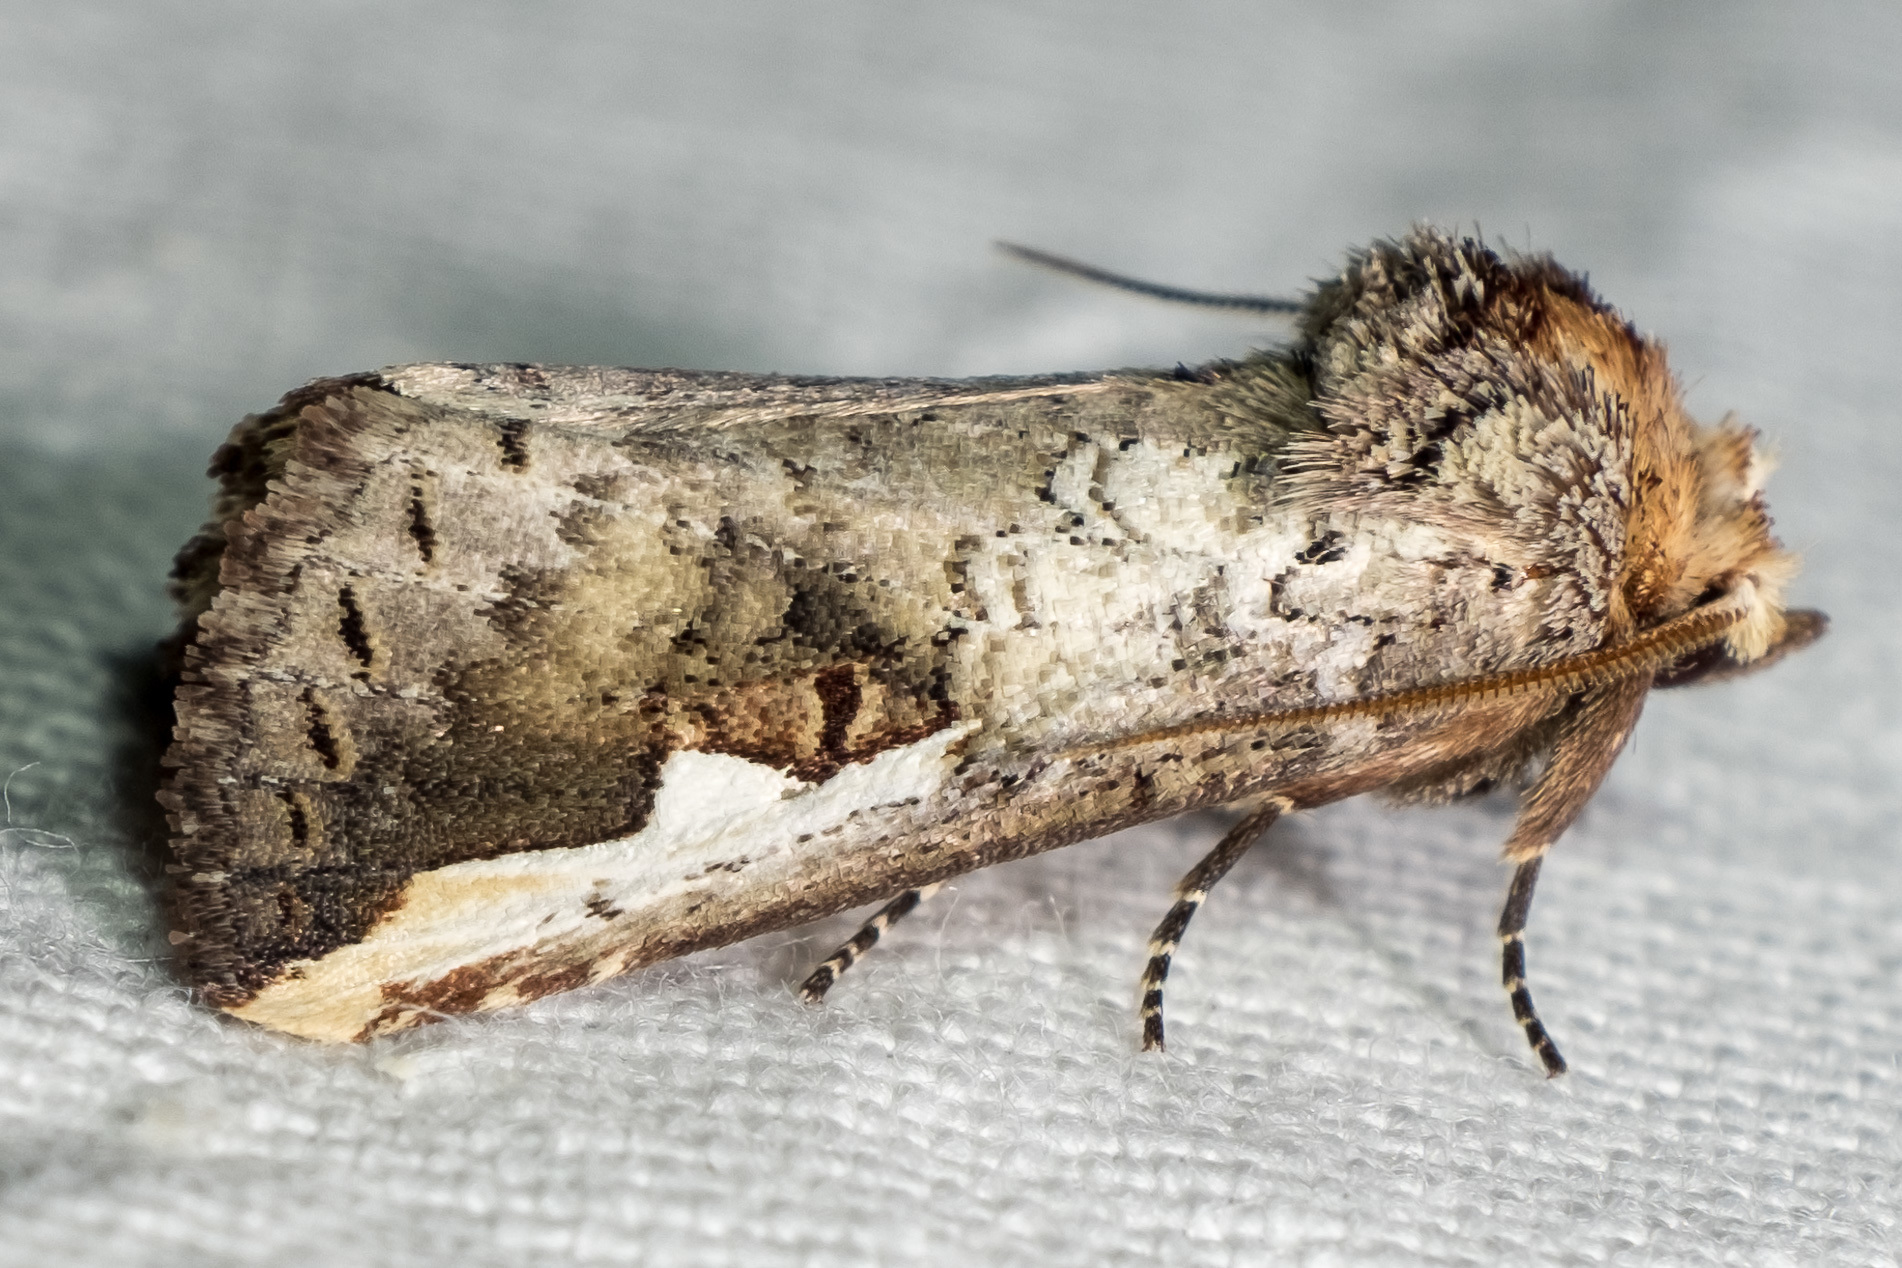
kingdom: Animalia
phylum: Arthropoda
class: Insecta
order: Lepidoptera
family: Notodontidae
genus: Symmerista
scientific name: Symmerista
